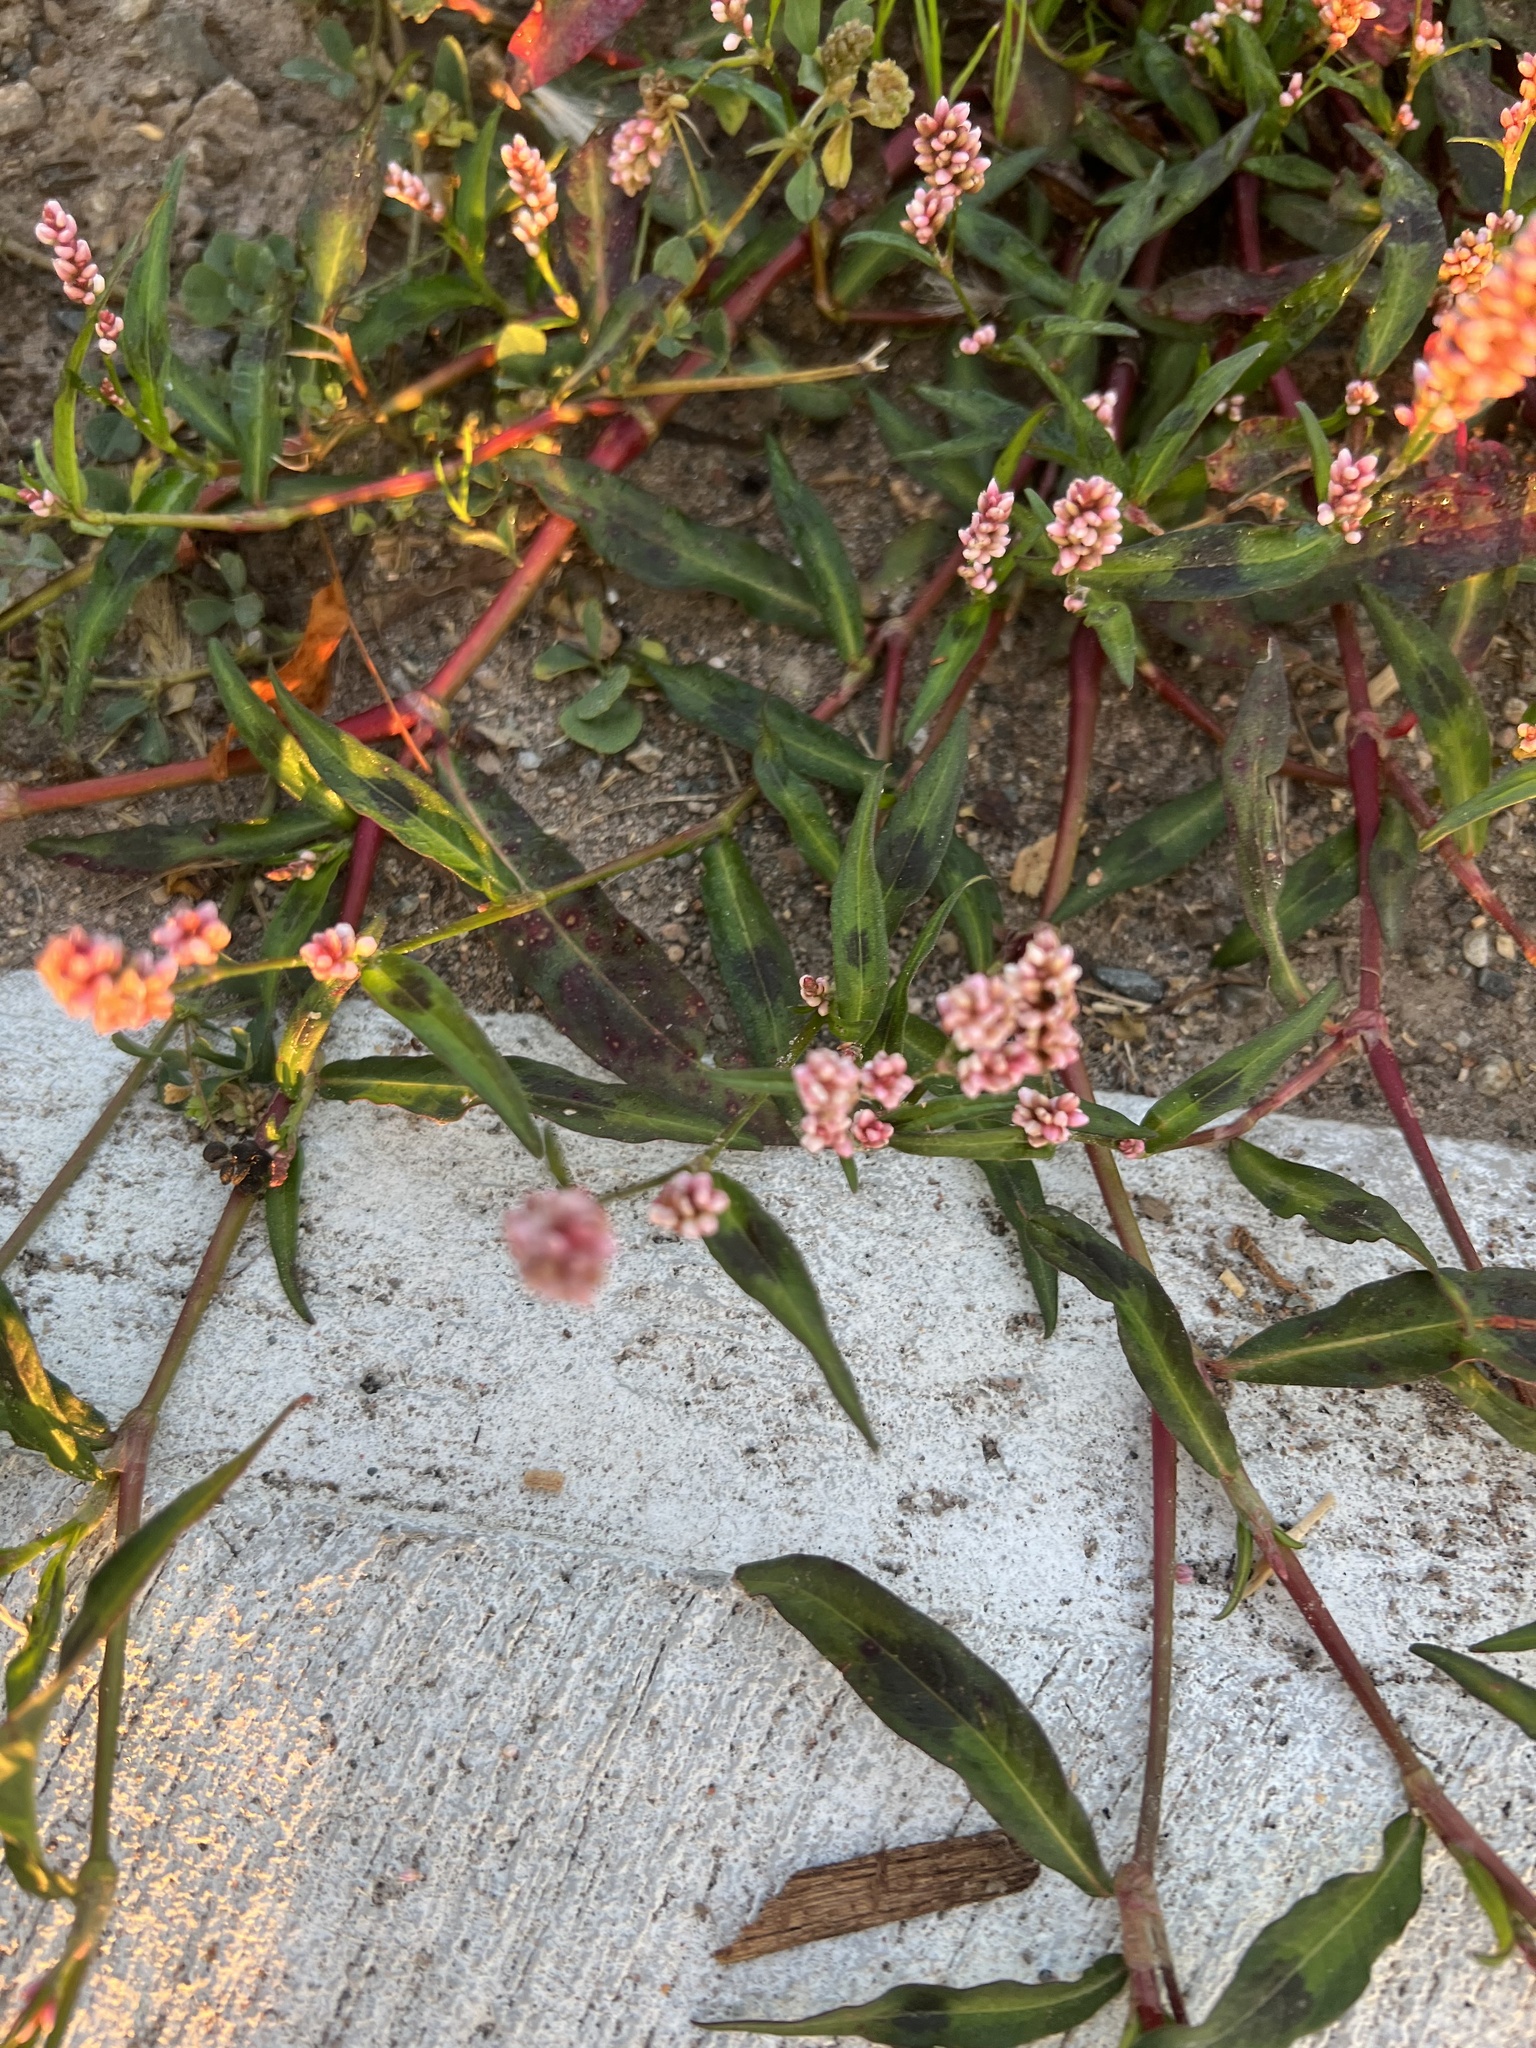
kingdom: Plantae
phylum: Tracheophyta
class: Magnoliopsida
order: Caryophyllales
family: Polygonaceae
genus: Persicaria
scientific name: Persicaria maculosa
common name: Redshank
